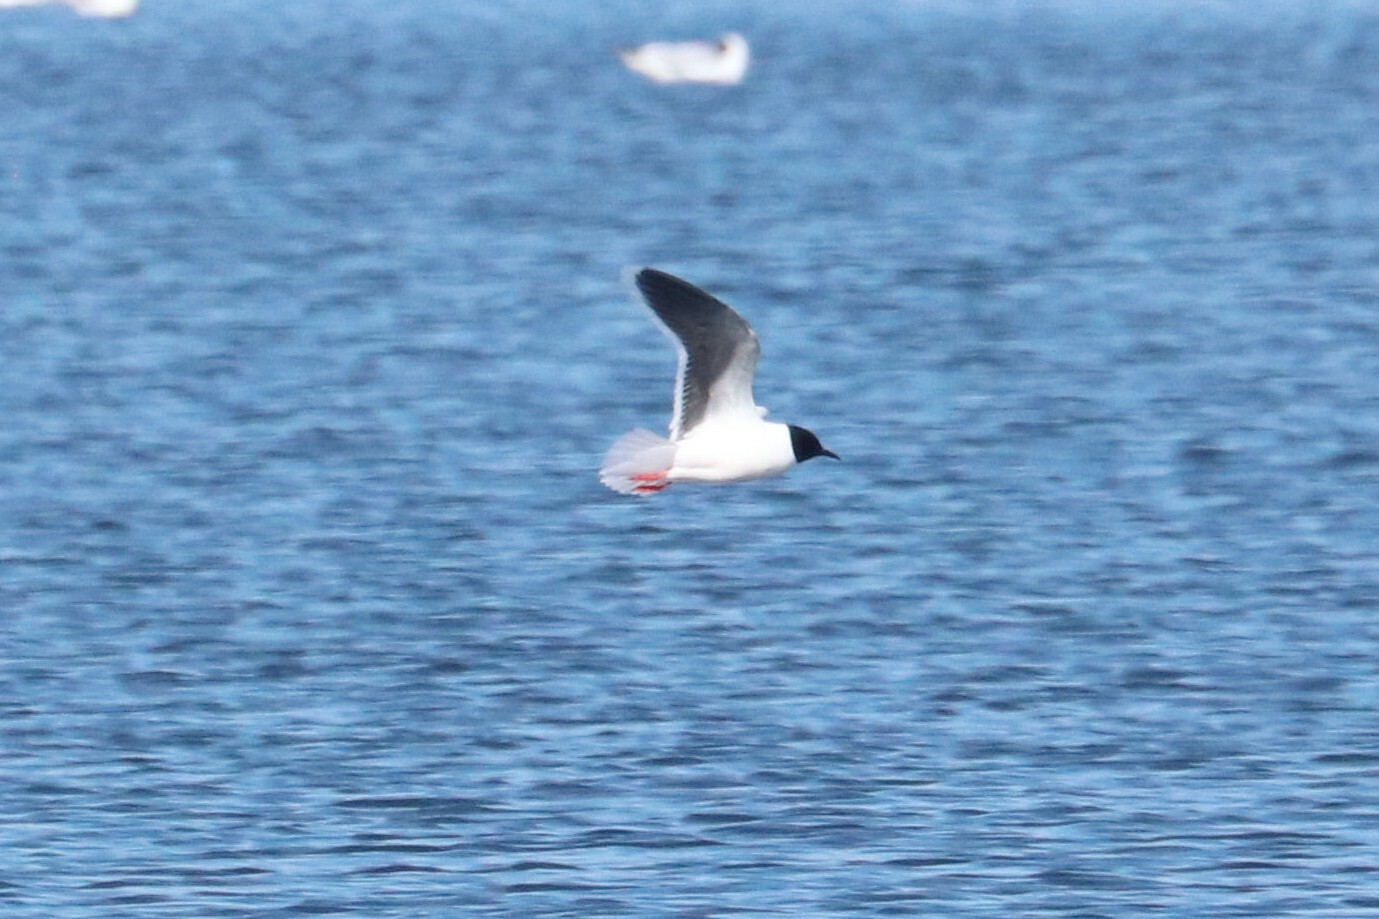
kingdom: Animalia
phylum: Chordata
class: Aves
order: Charadriiformes
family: Laridae
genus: Hydrocoloeus
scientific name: Hydrocoloeus minutus
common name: Little gull
